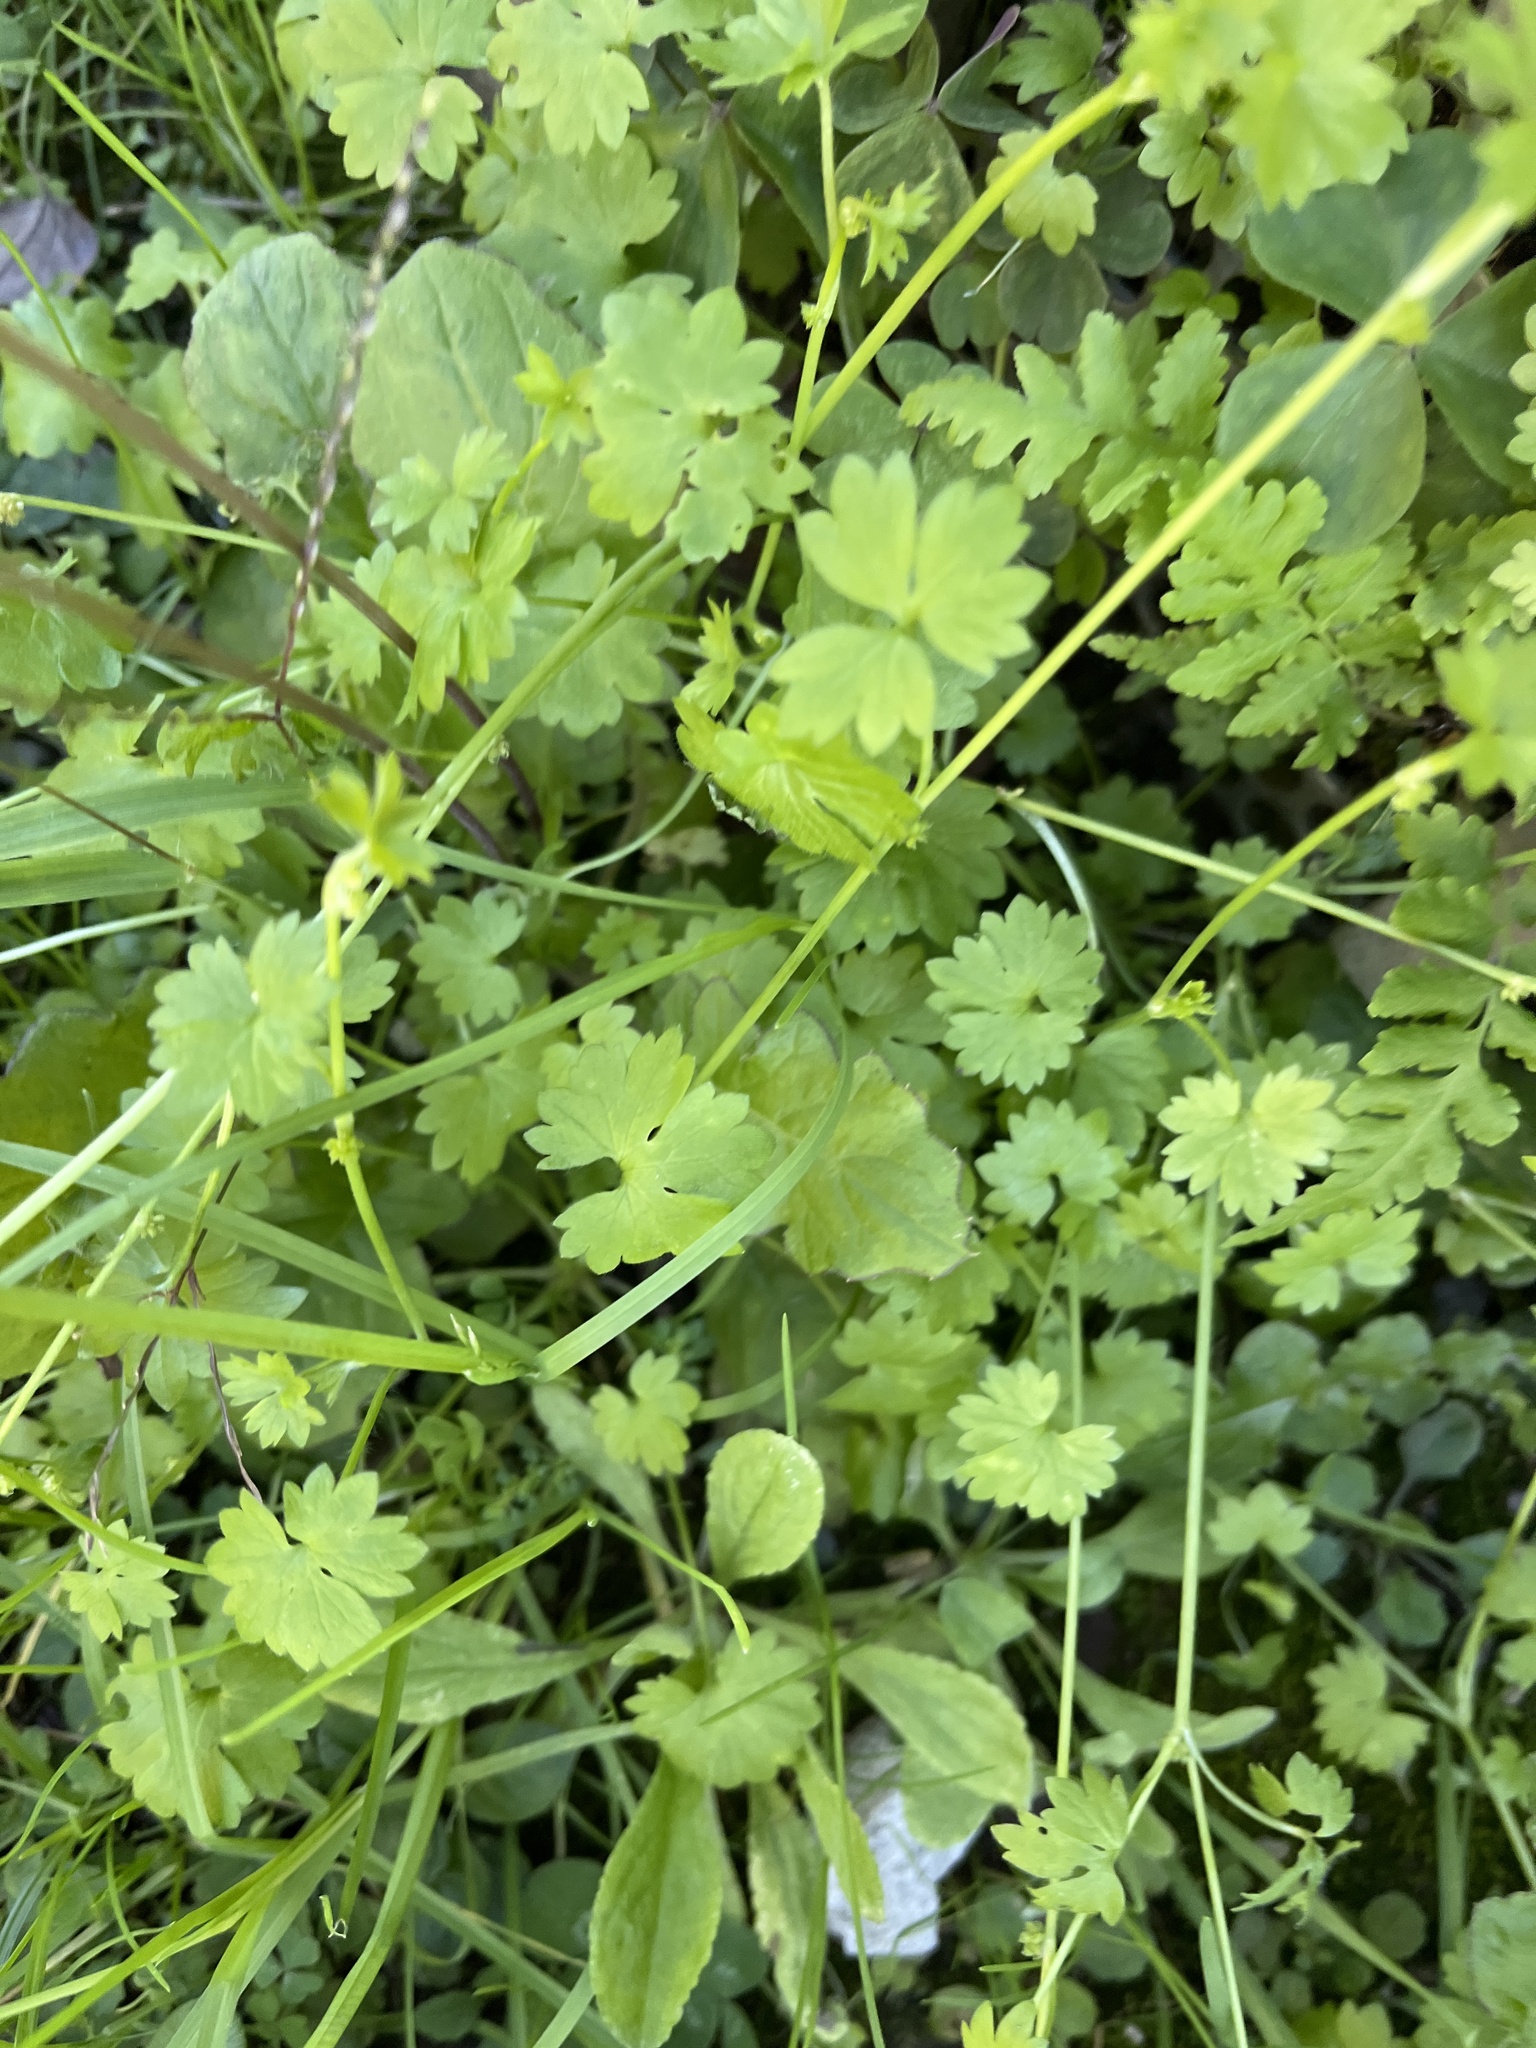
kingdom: Plantae
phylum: Tracheophyta
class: Magnoliopsida
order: Ranunculales
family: Ranunculaceae
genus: Ranunculus
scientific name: Ranunculus platensis
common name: Prairie buttercup
